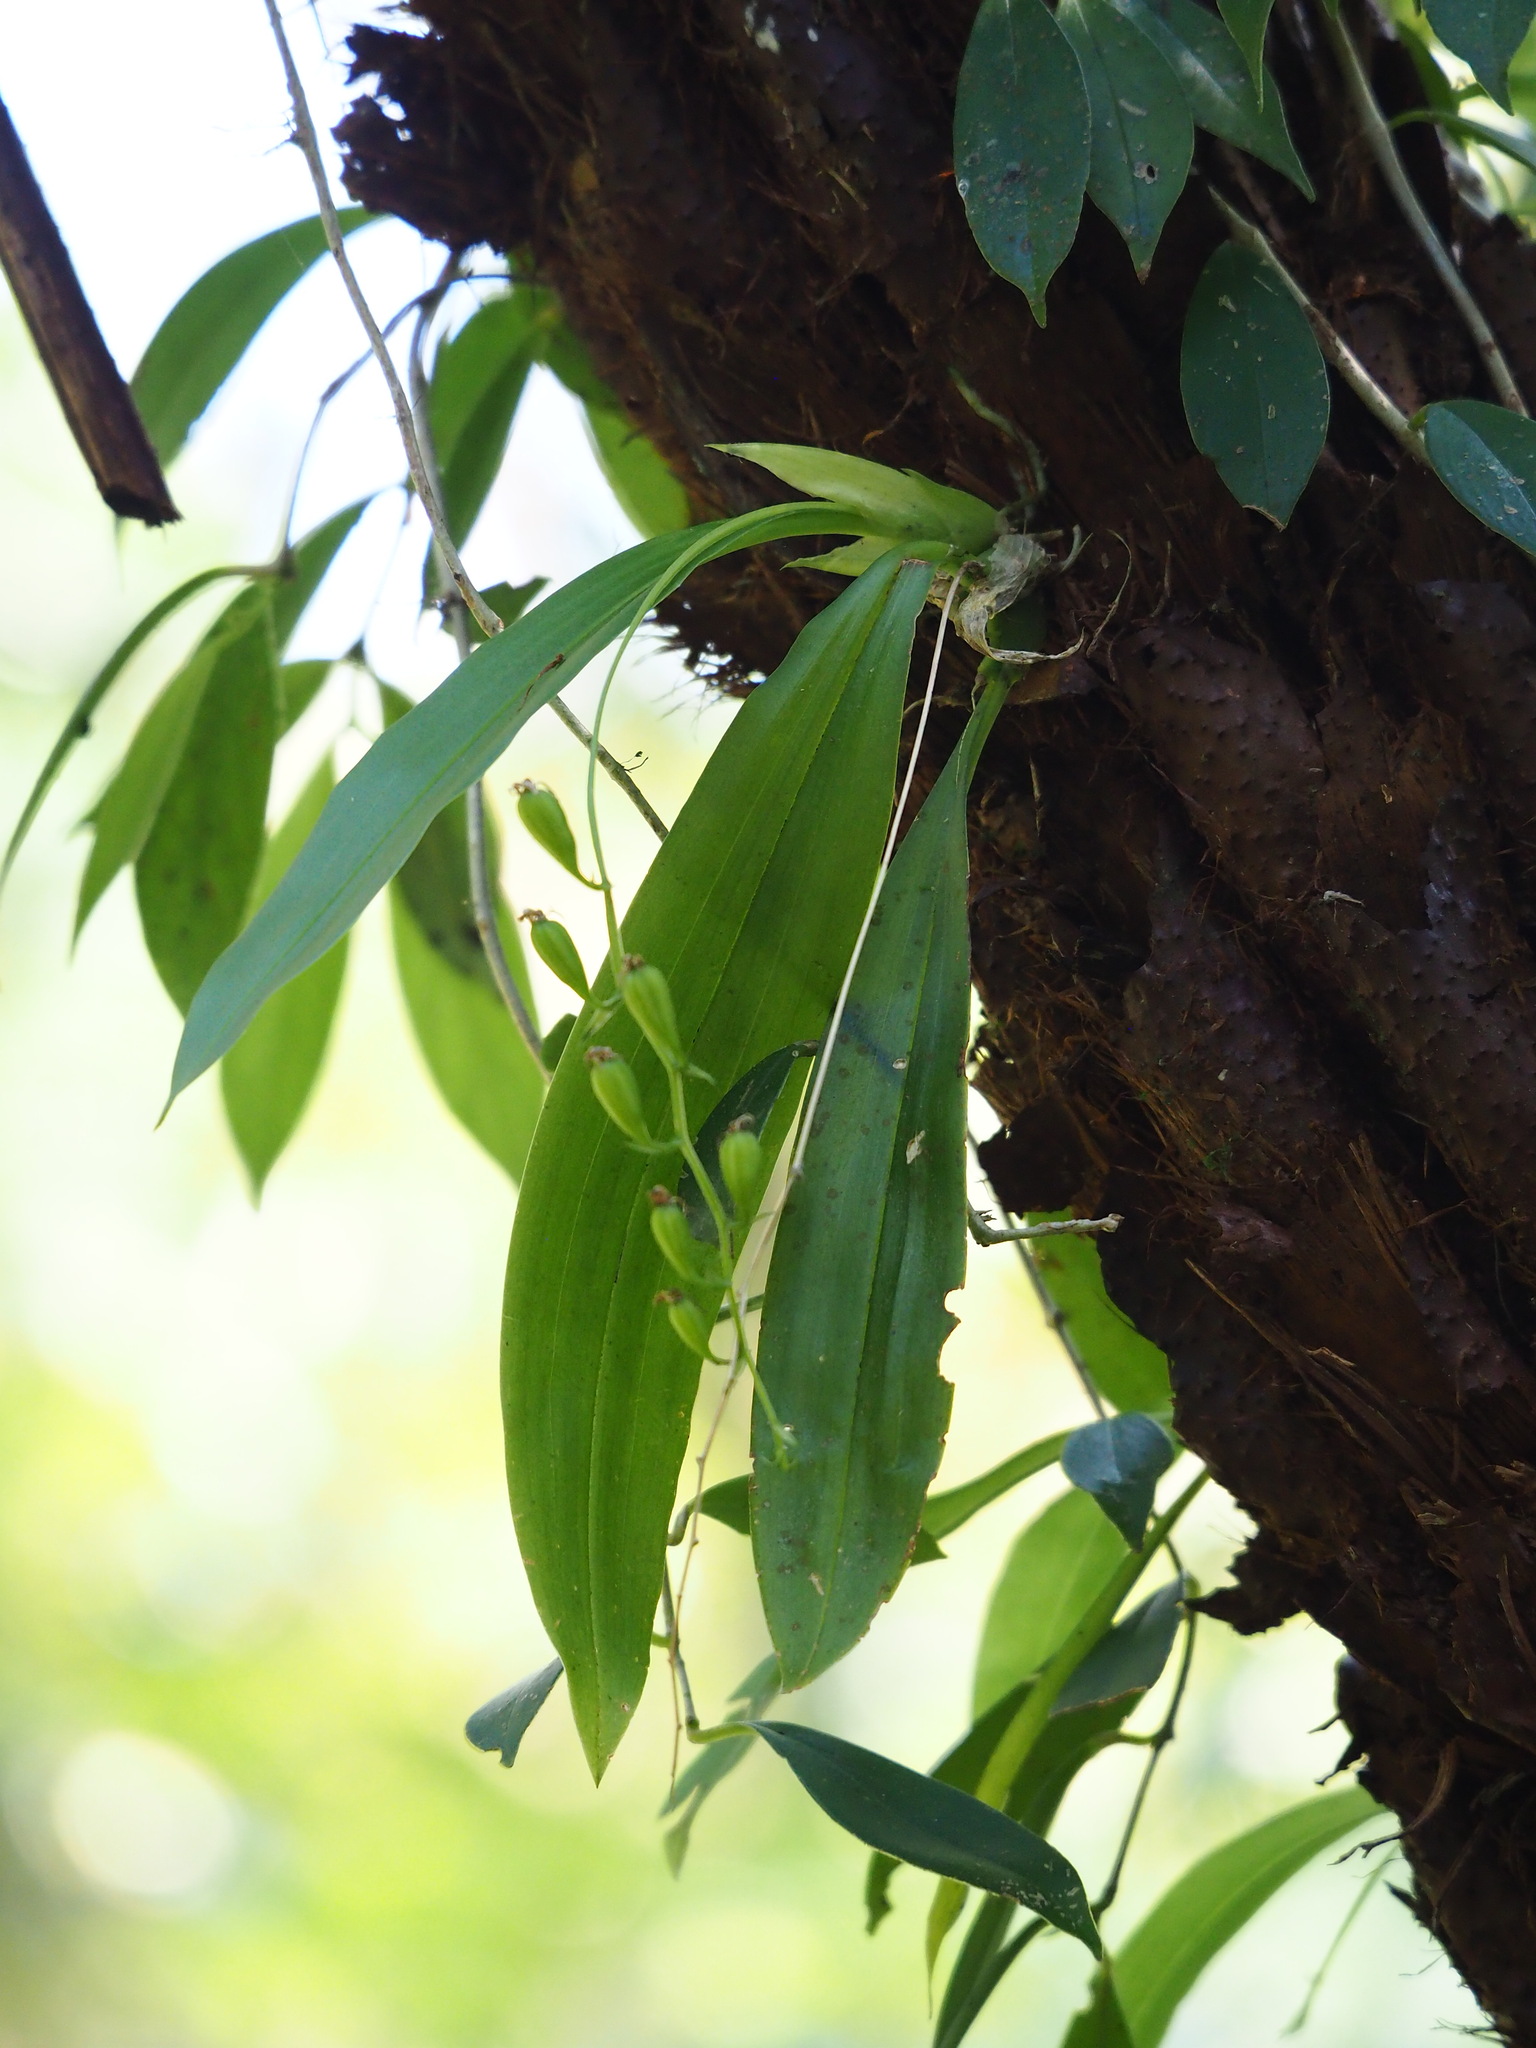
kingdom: Plantae
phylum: Tracheophyta
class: Liliopsida
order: Asparagales
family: Orchidaceae
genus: Liparis
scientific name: Liparis bootanensis
